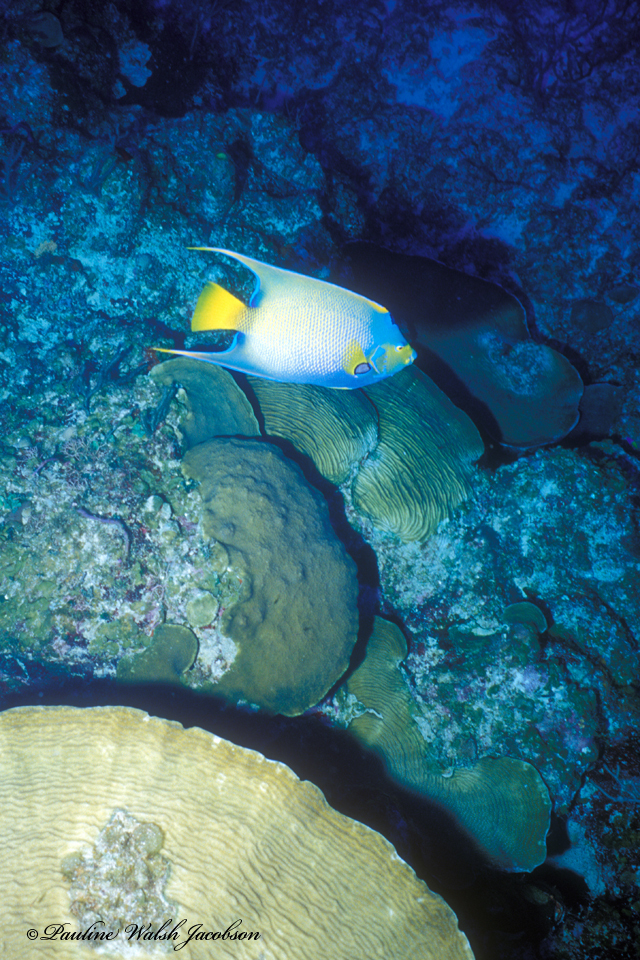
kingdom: Animalia
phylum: Chordata
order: Perciformes
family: Pomacanthidae
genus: Holacanthus
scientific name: Holacanthus ciliaris
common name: Queen angelfish
